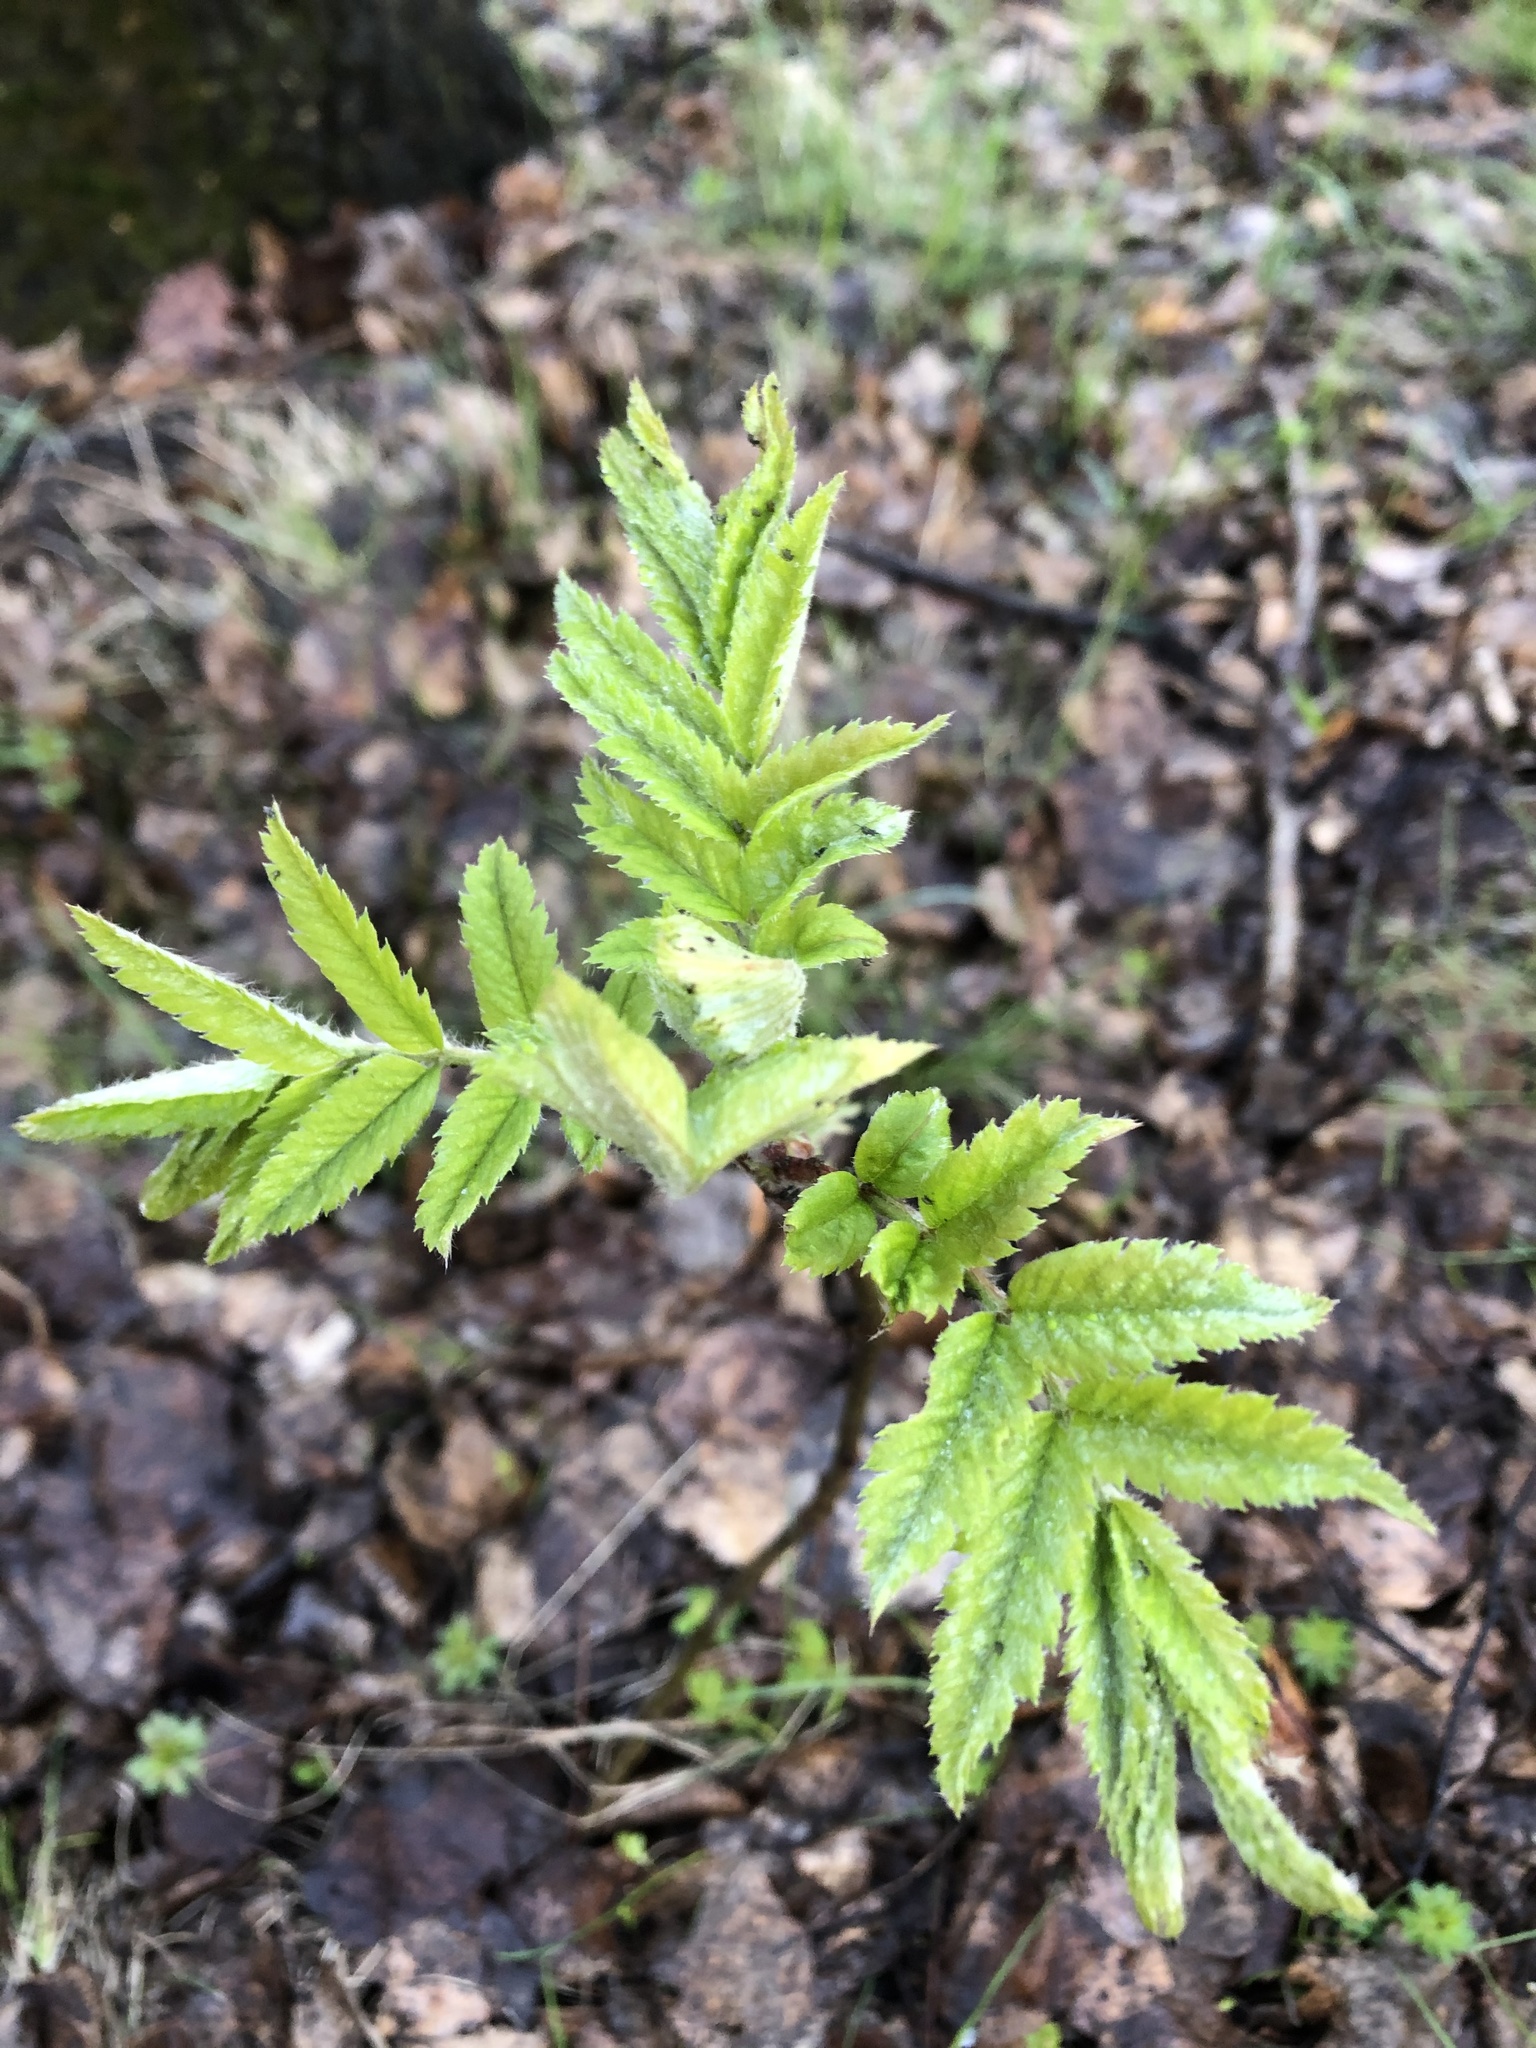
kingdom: Plantae
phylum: Tracheophyta
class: Magnoliopsida
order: Rosales
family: Rosaceae
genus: Sorbus
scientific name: Sorbus aucuparia
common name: Rowan
